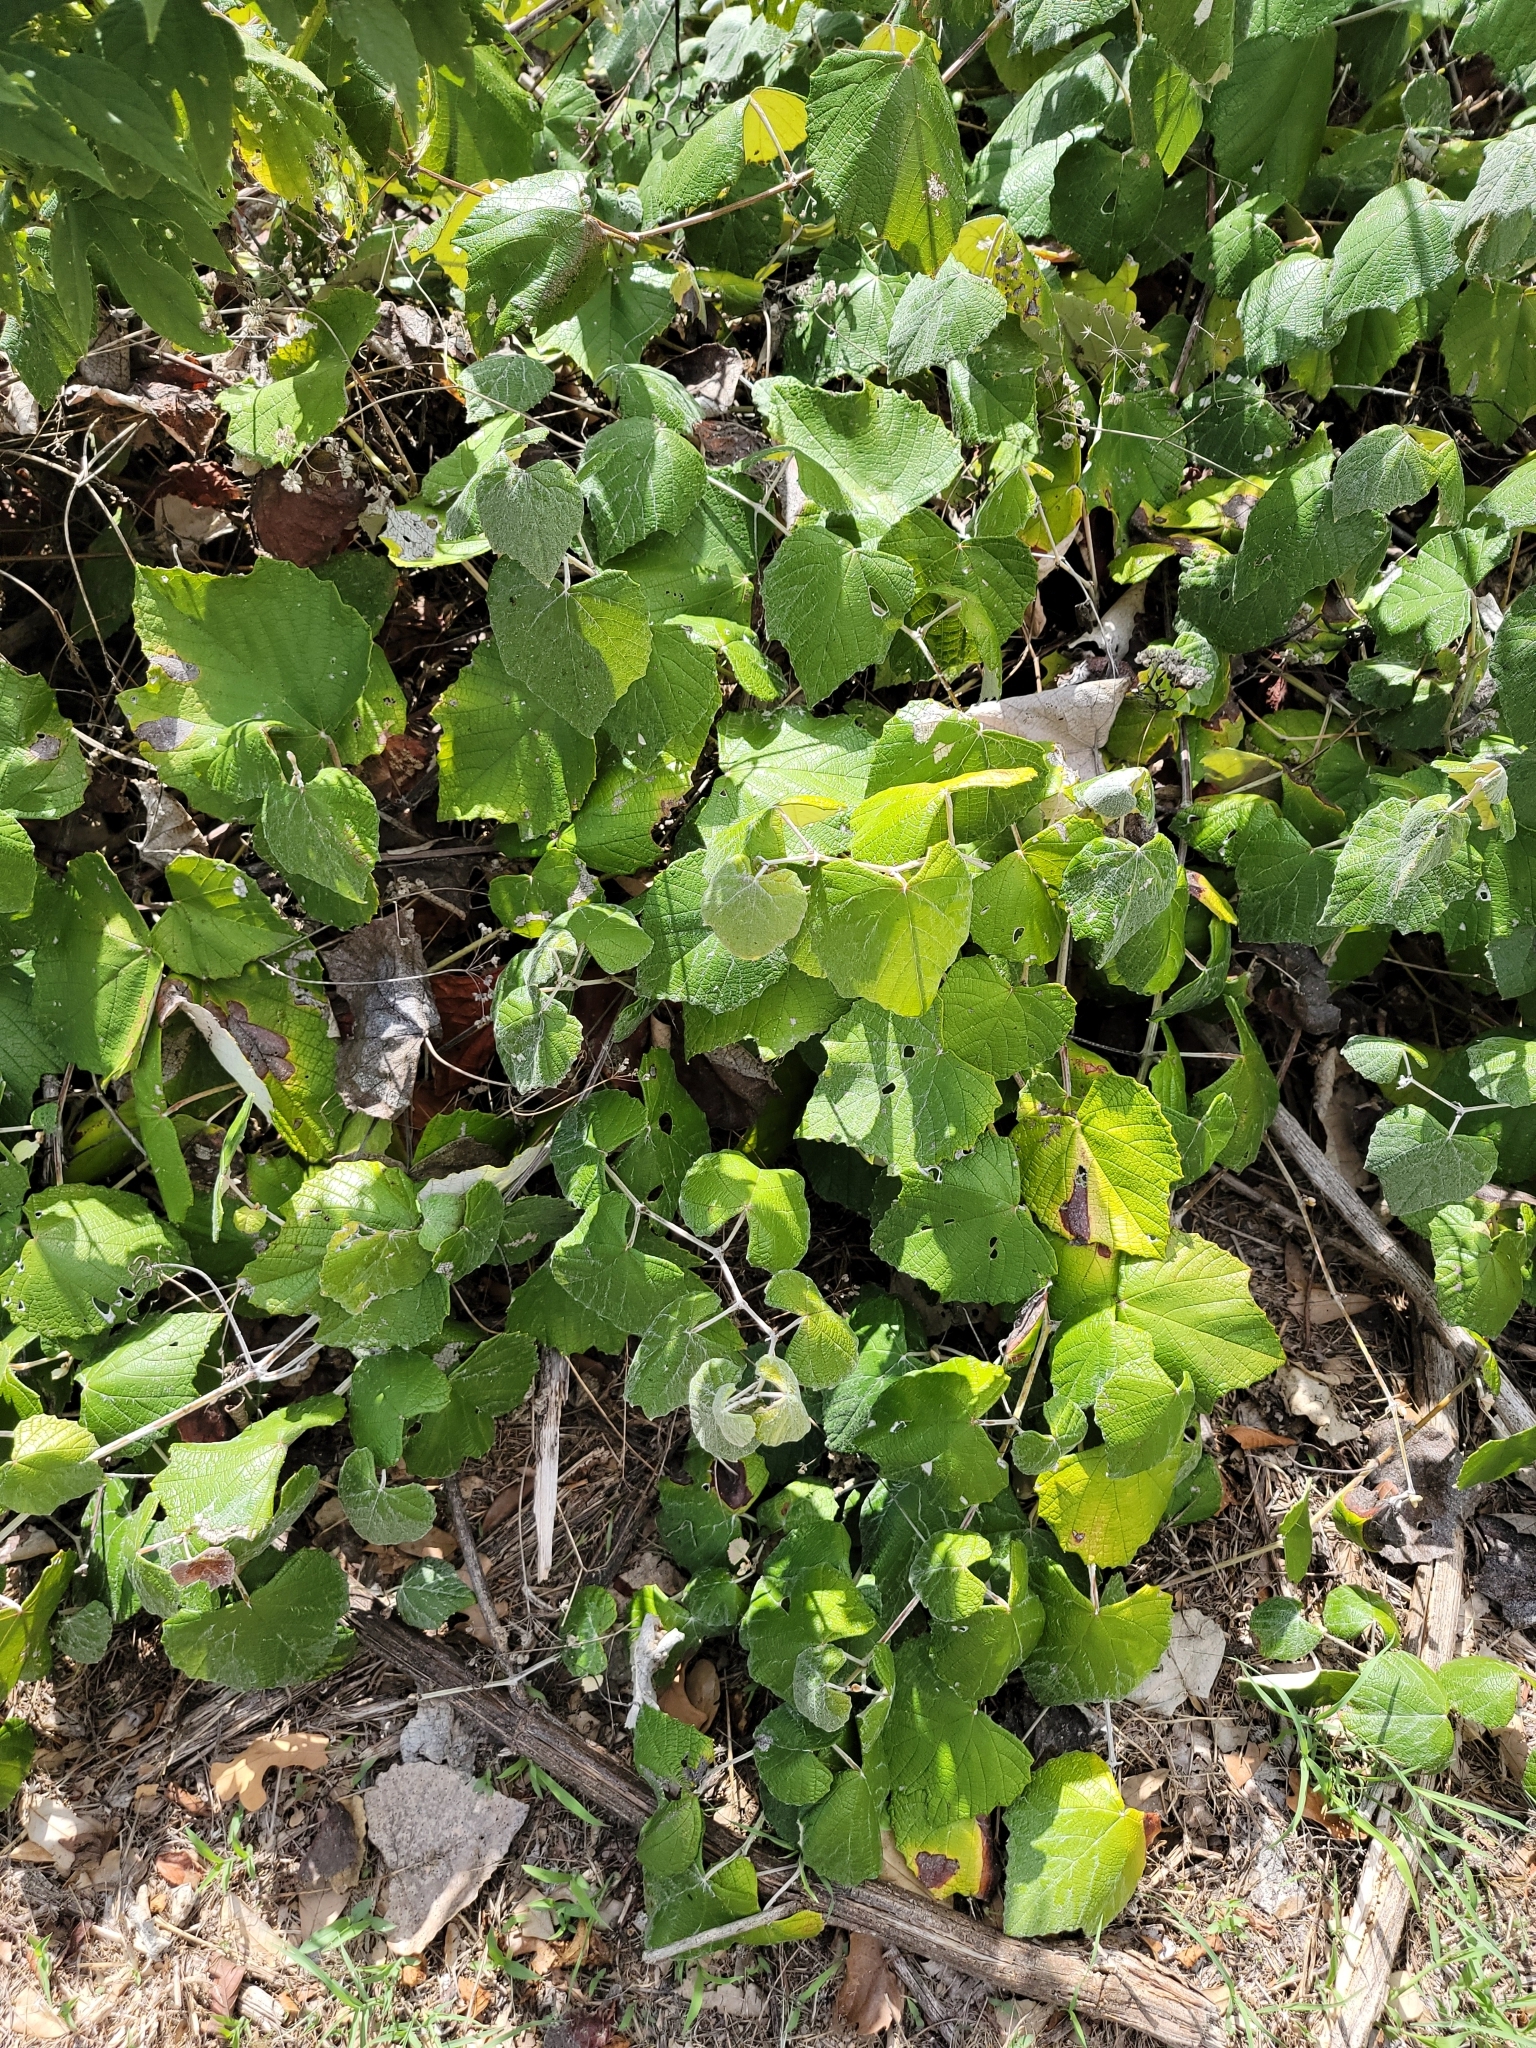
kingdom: Plantae
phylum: Tracheophyta
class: Magnoliopsida
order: Vitales
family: Vitaceae
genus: Vitis
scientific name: Vitis mustangensis
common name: Mustang grape
